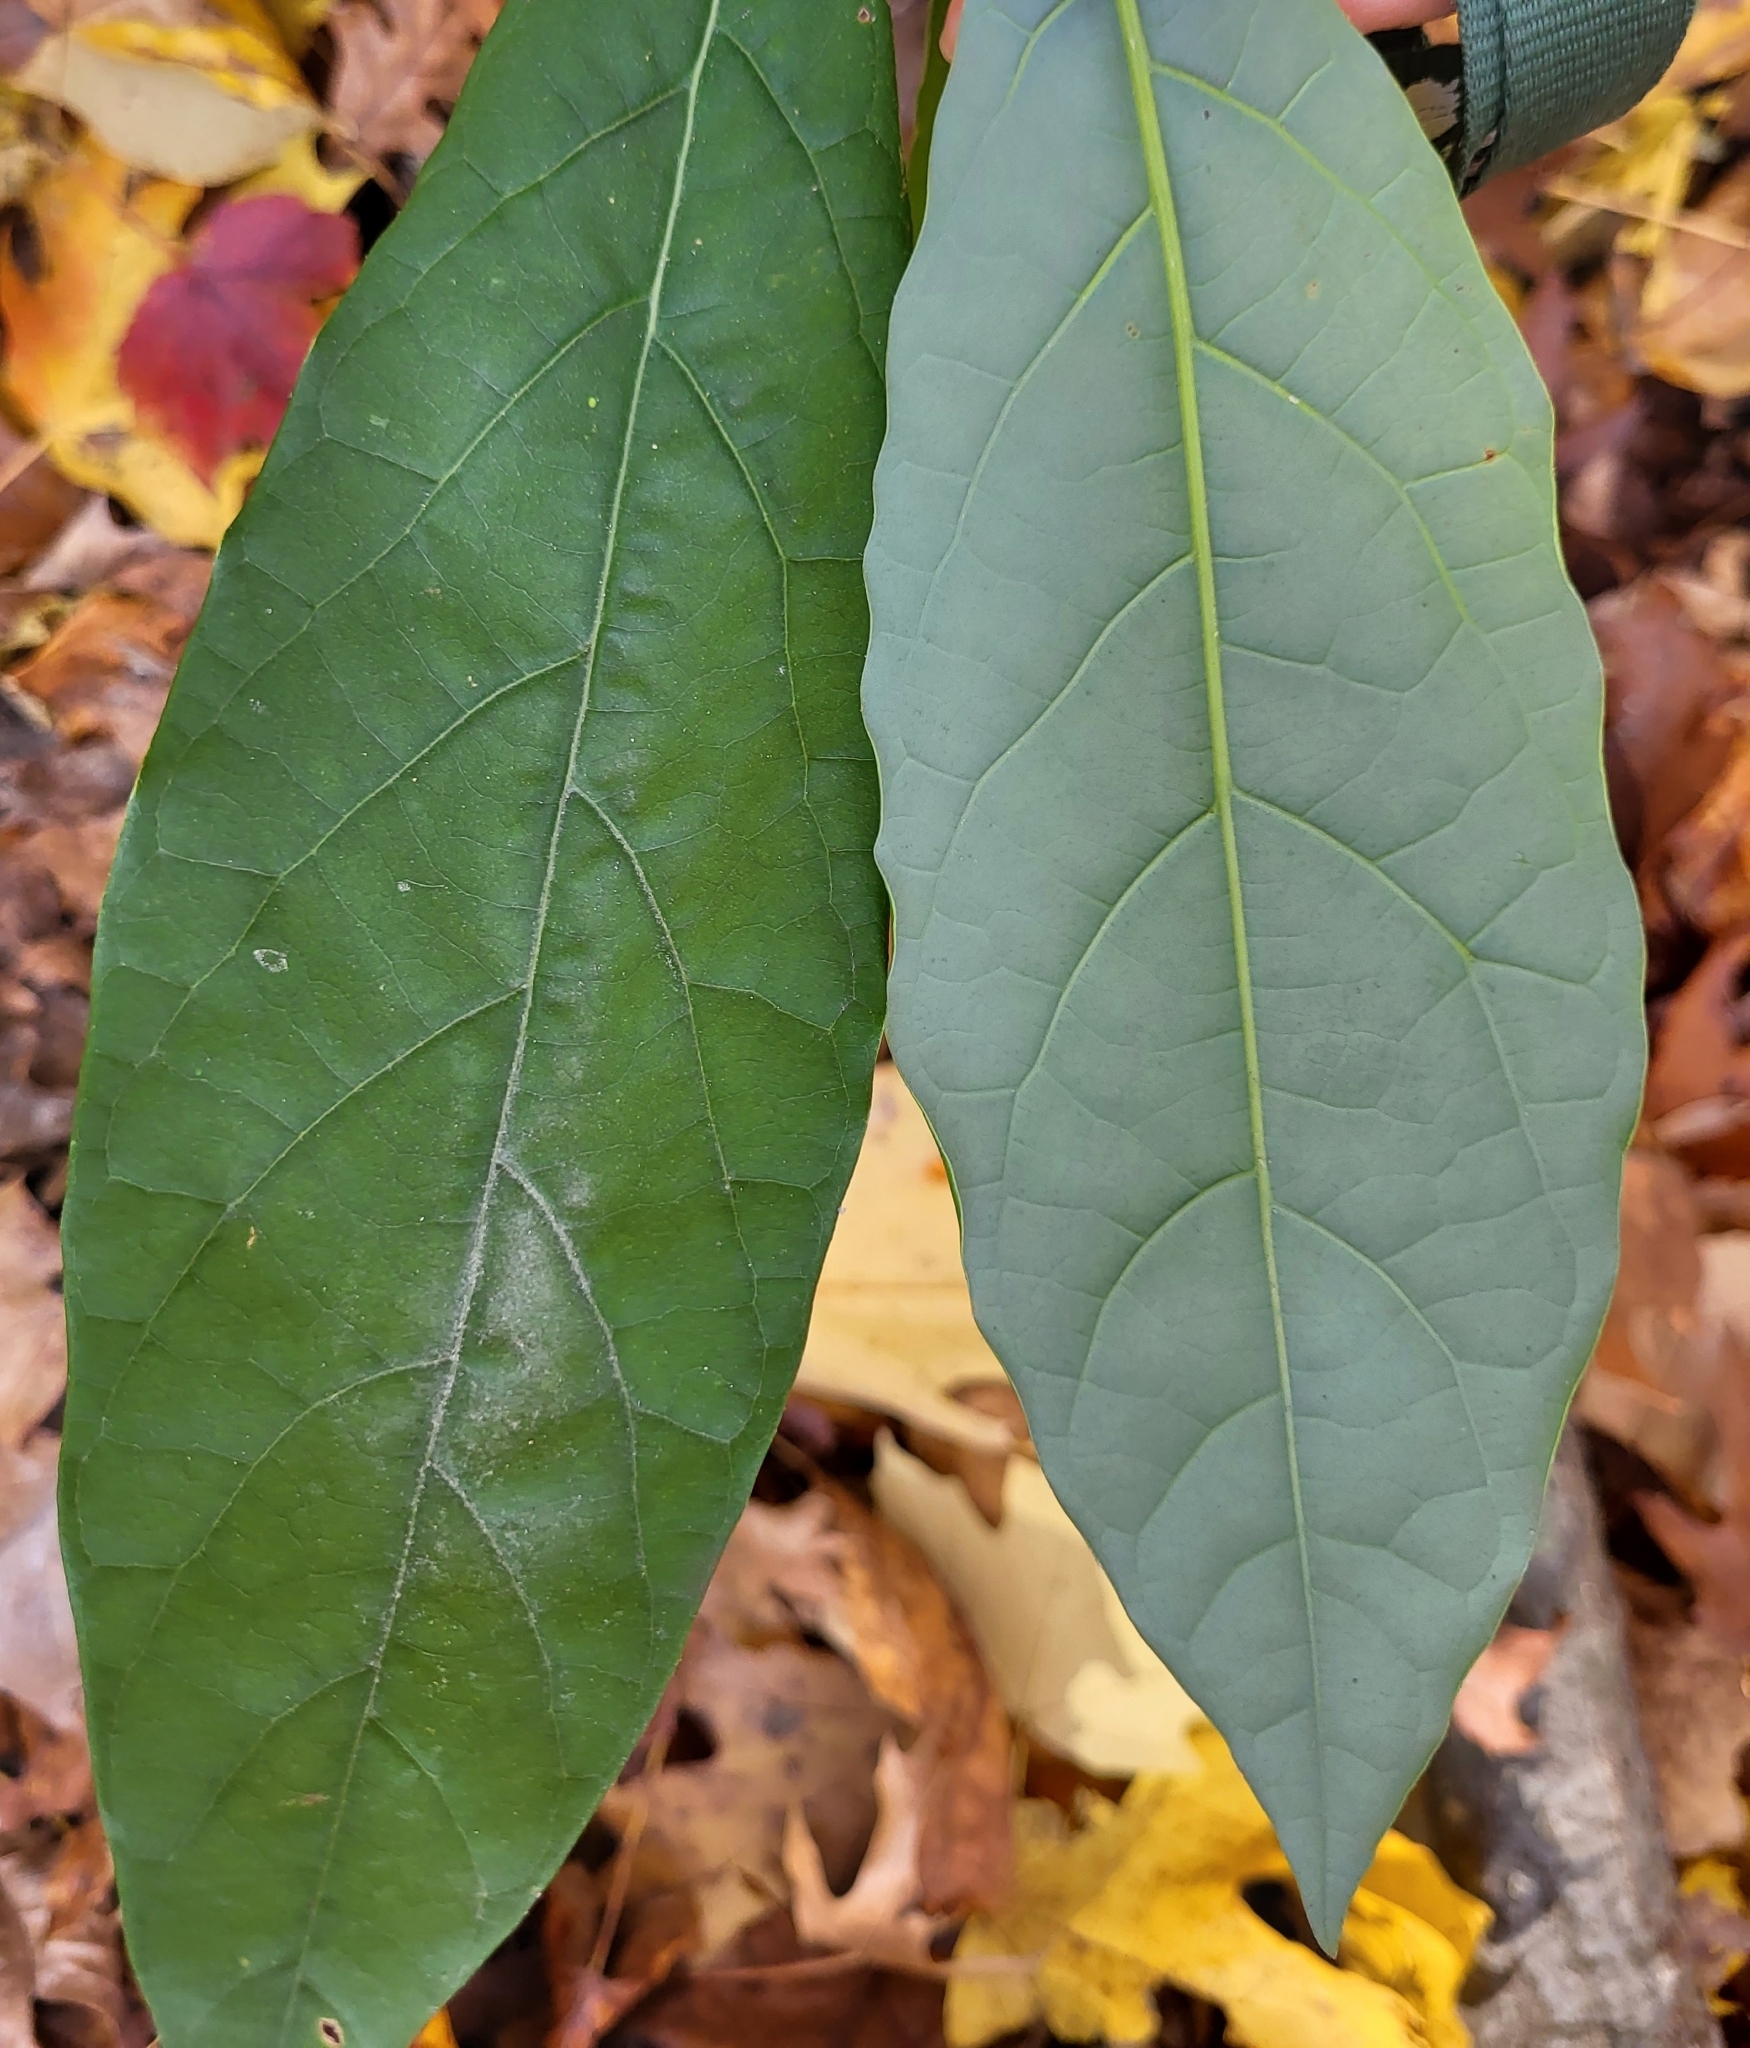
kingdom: Plantae
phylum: Tracheophyta
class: Magnoliopsida
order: Laurales
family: Lauraceae
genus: Persea
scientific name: Persea americana
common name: Avocado
